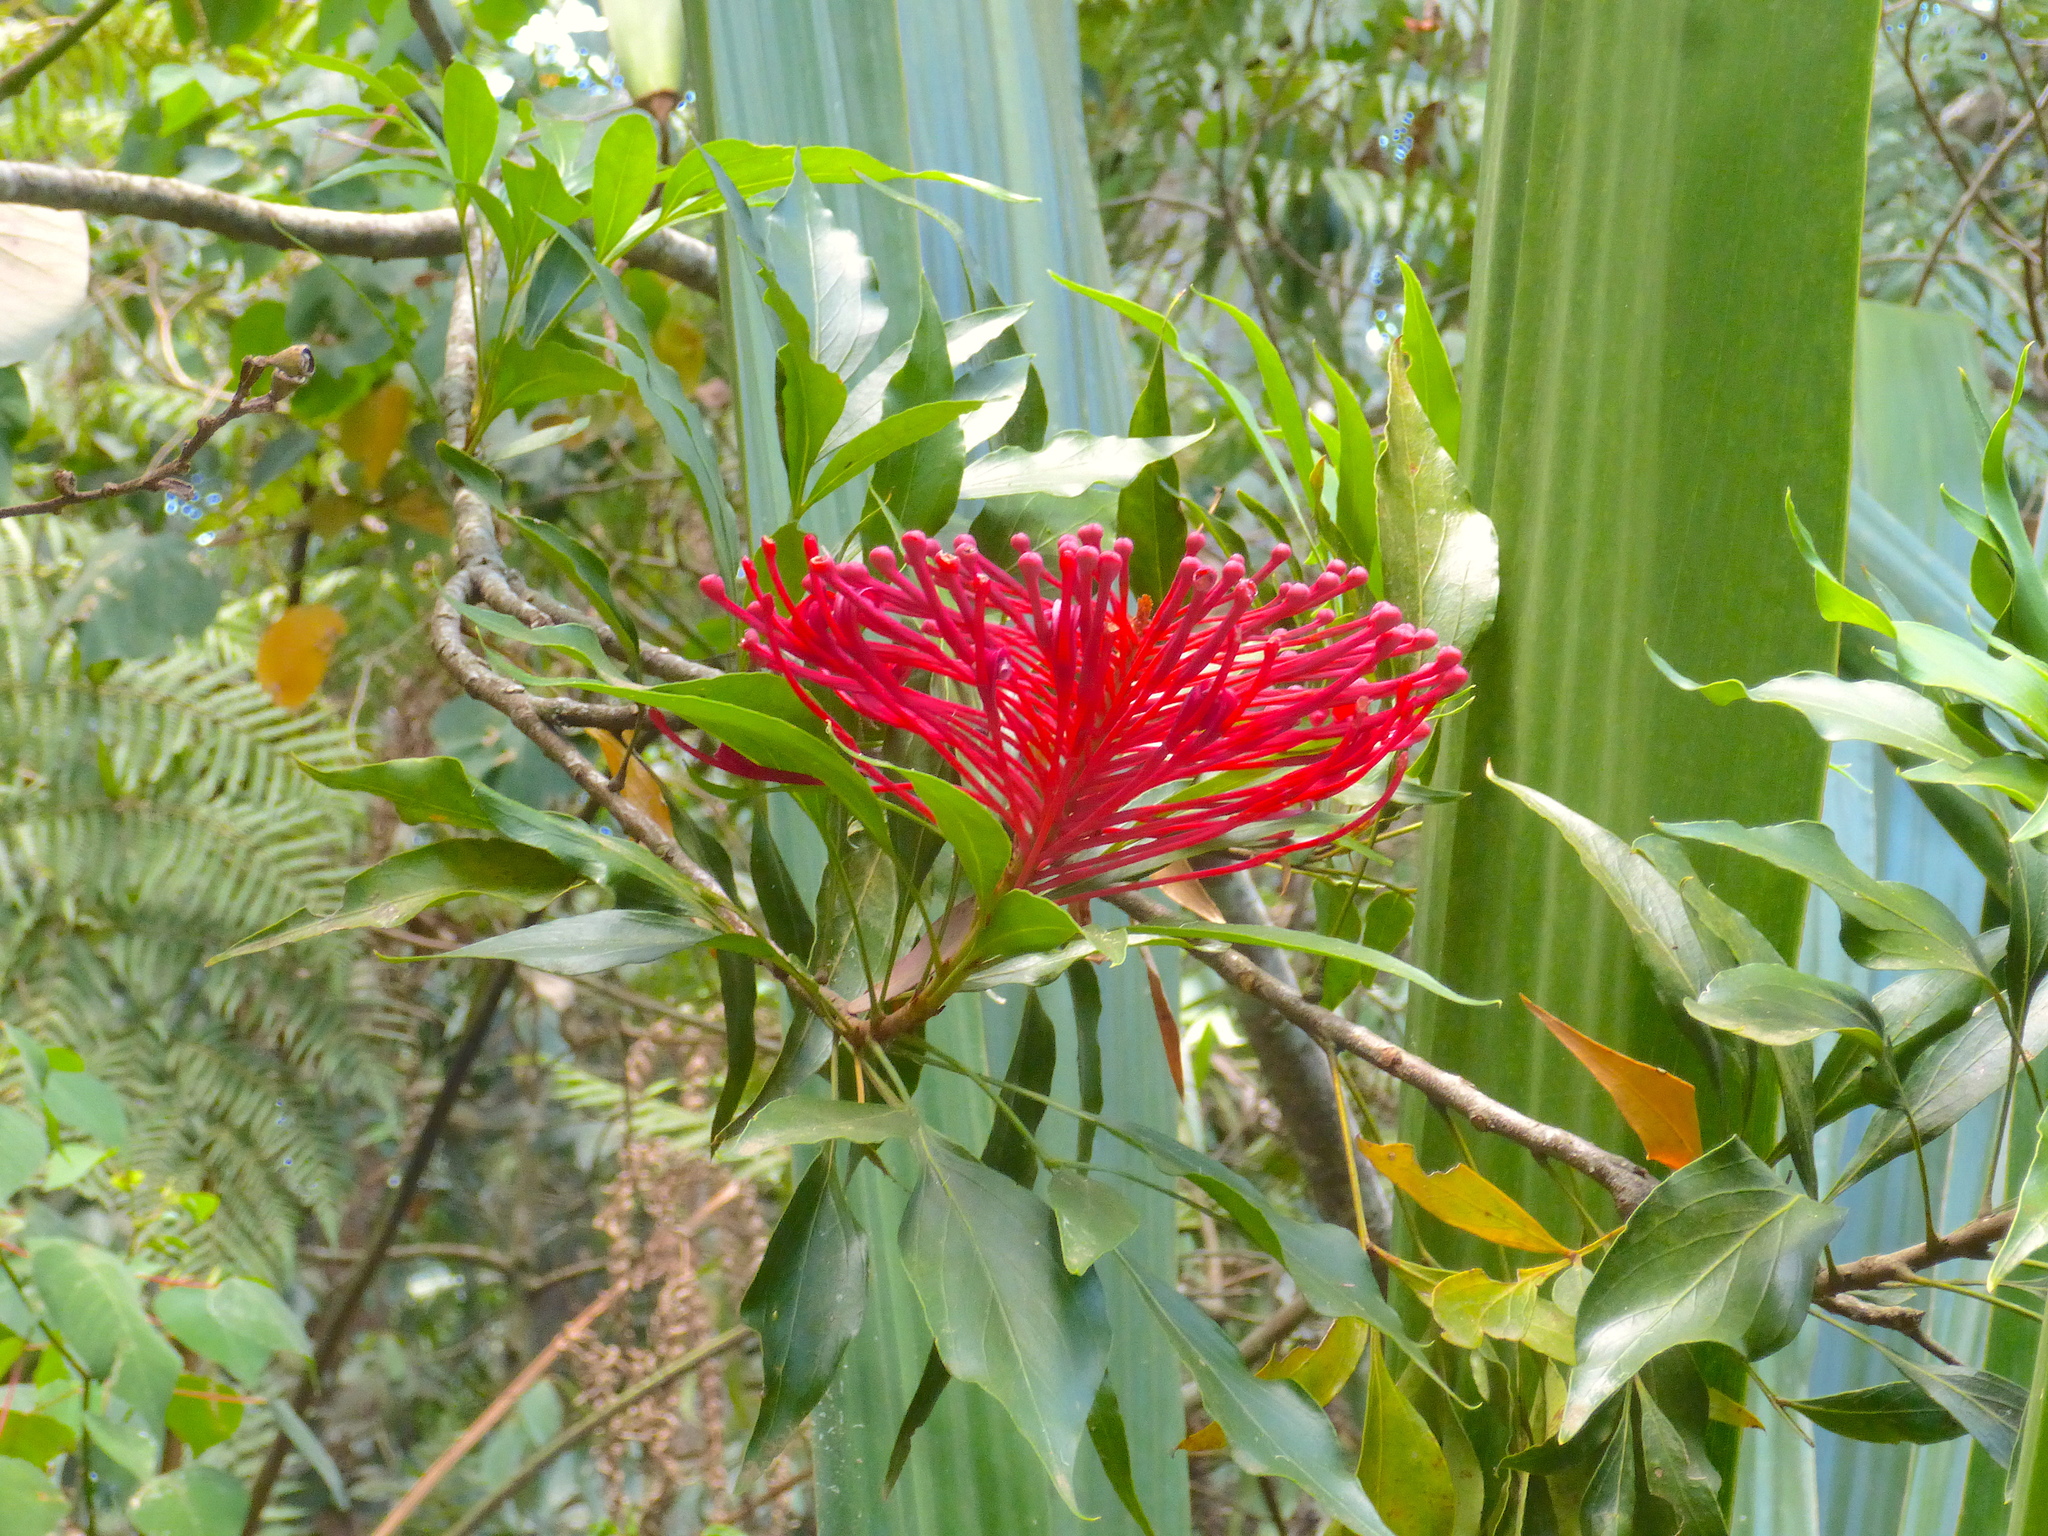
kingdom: Plantae
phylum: Tracheophyta
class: Magnoliopsida
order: Proteales
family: Proteaceae
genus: Alloxylon
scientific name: Alloxylon pinnatum
